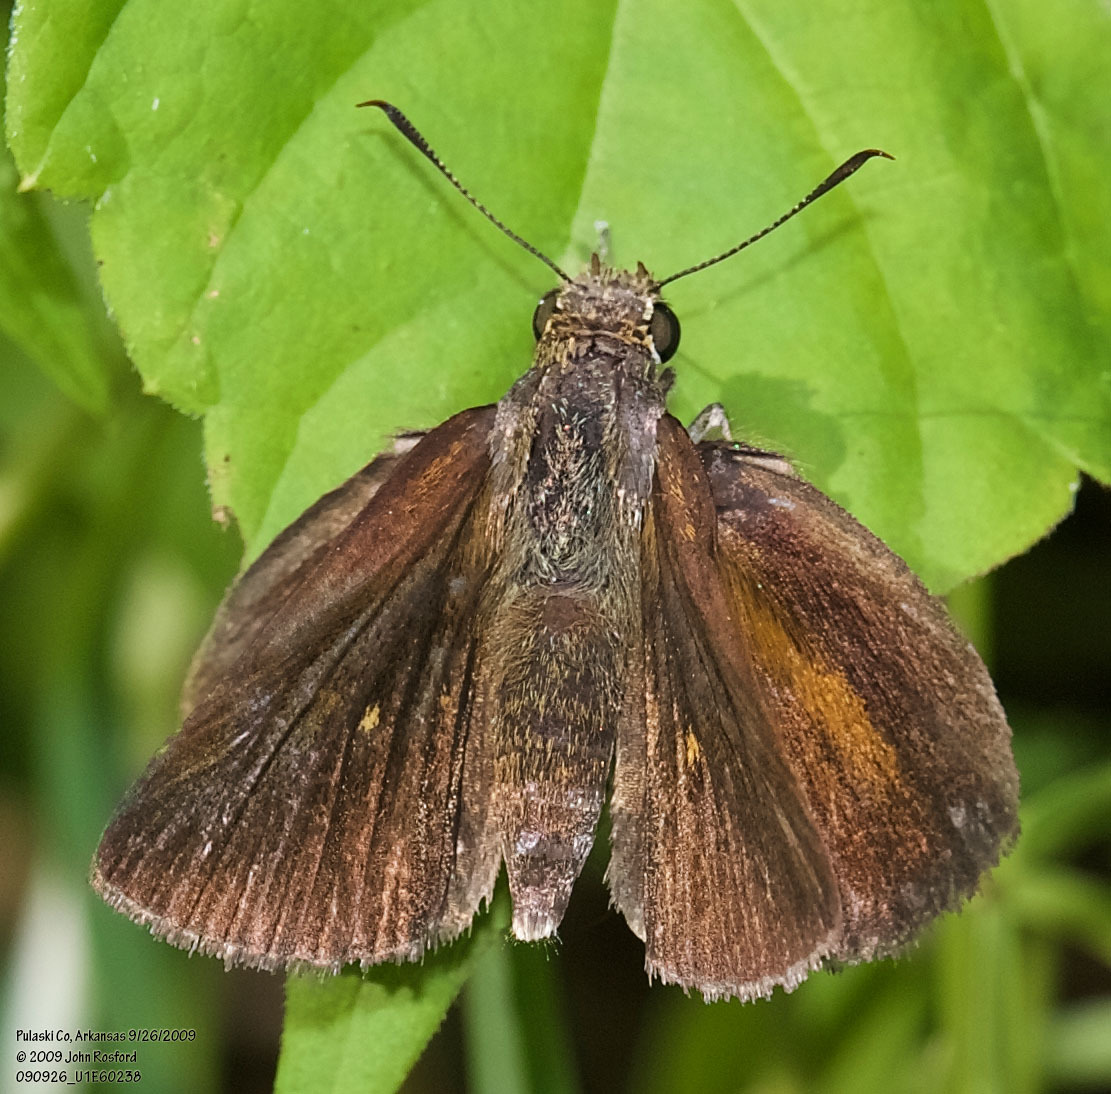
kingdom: Animalia
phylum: Arthropoda
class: Insecta
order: Lepidoptera
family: Hesperiidae
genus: Euphyes
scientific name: Euphyes dukesi
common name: Dukes' skipper
